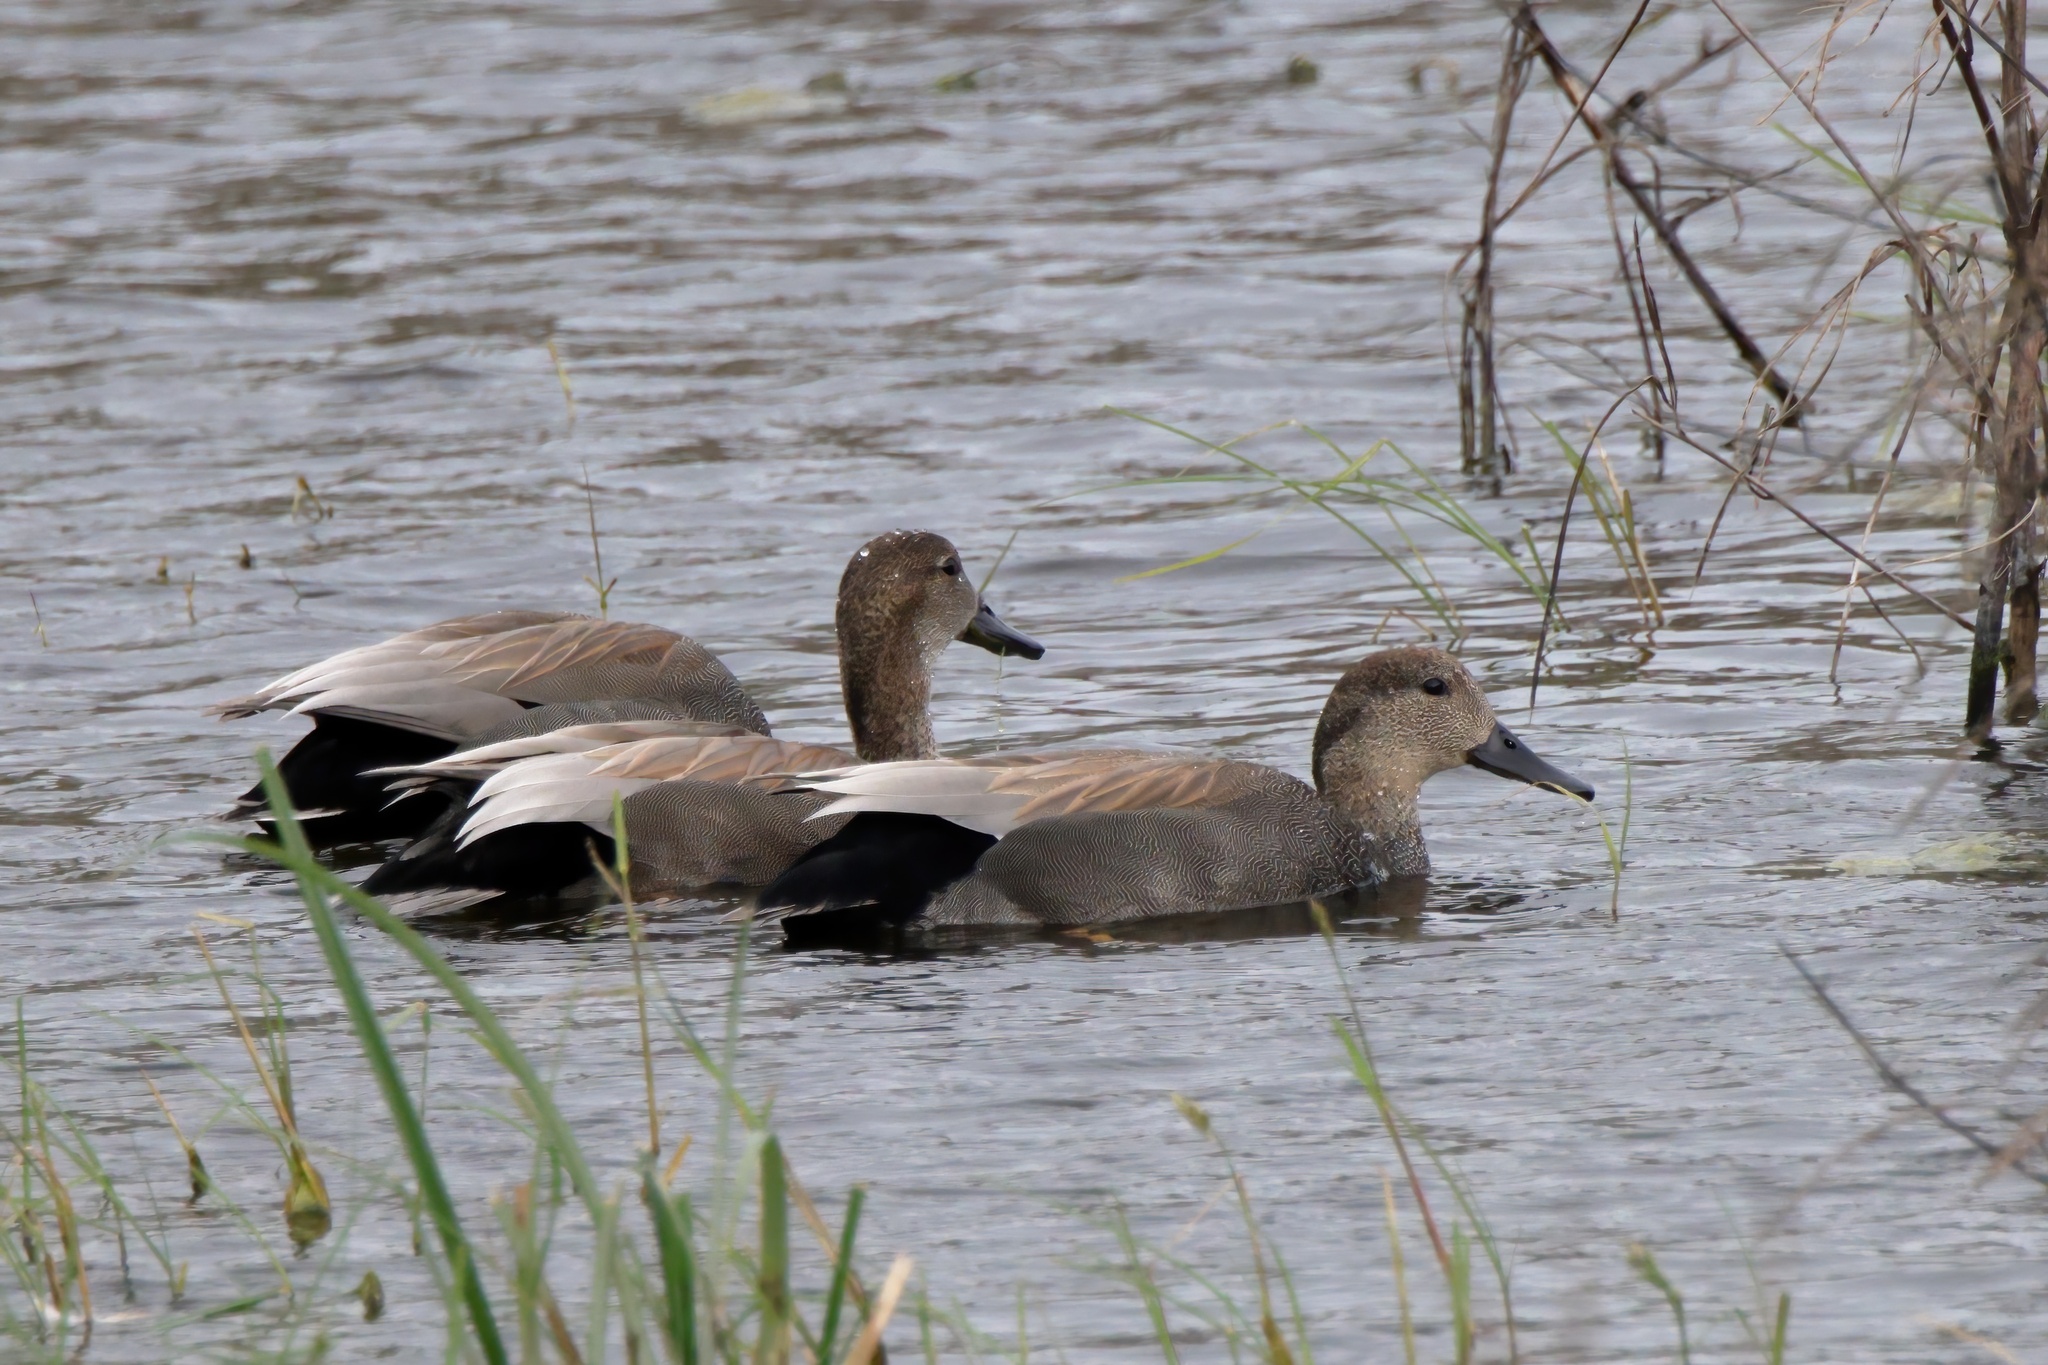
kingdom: Animalia
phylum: Chordata
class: Aves
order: Anseriformes
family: Anatidae
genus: Mareca
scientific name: Mareca strepera
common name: Gadwall
